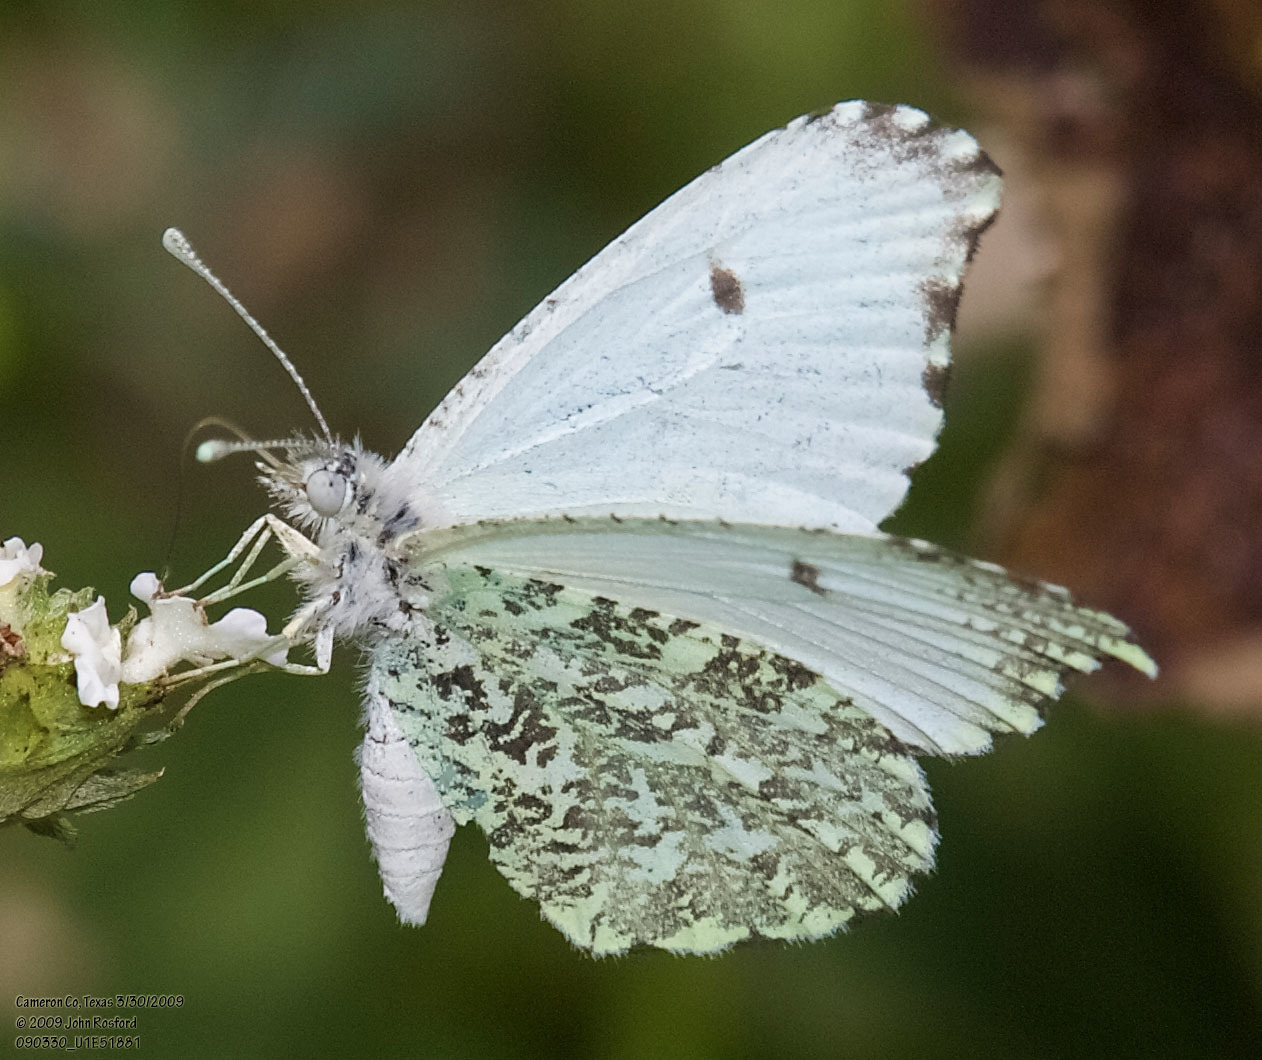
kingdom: Animalia
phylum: Arthropoda
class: Insecta
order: Lepidoptera
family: Pieridae
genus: Anthocharis
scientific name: Anthocharis midea
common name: Falcate orangetip
